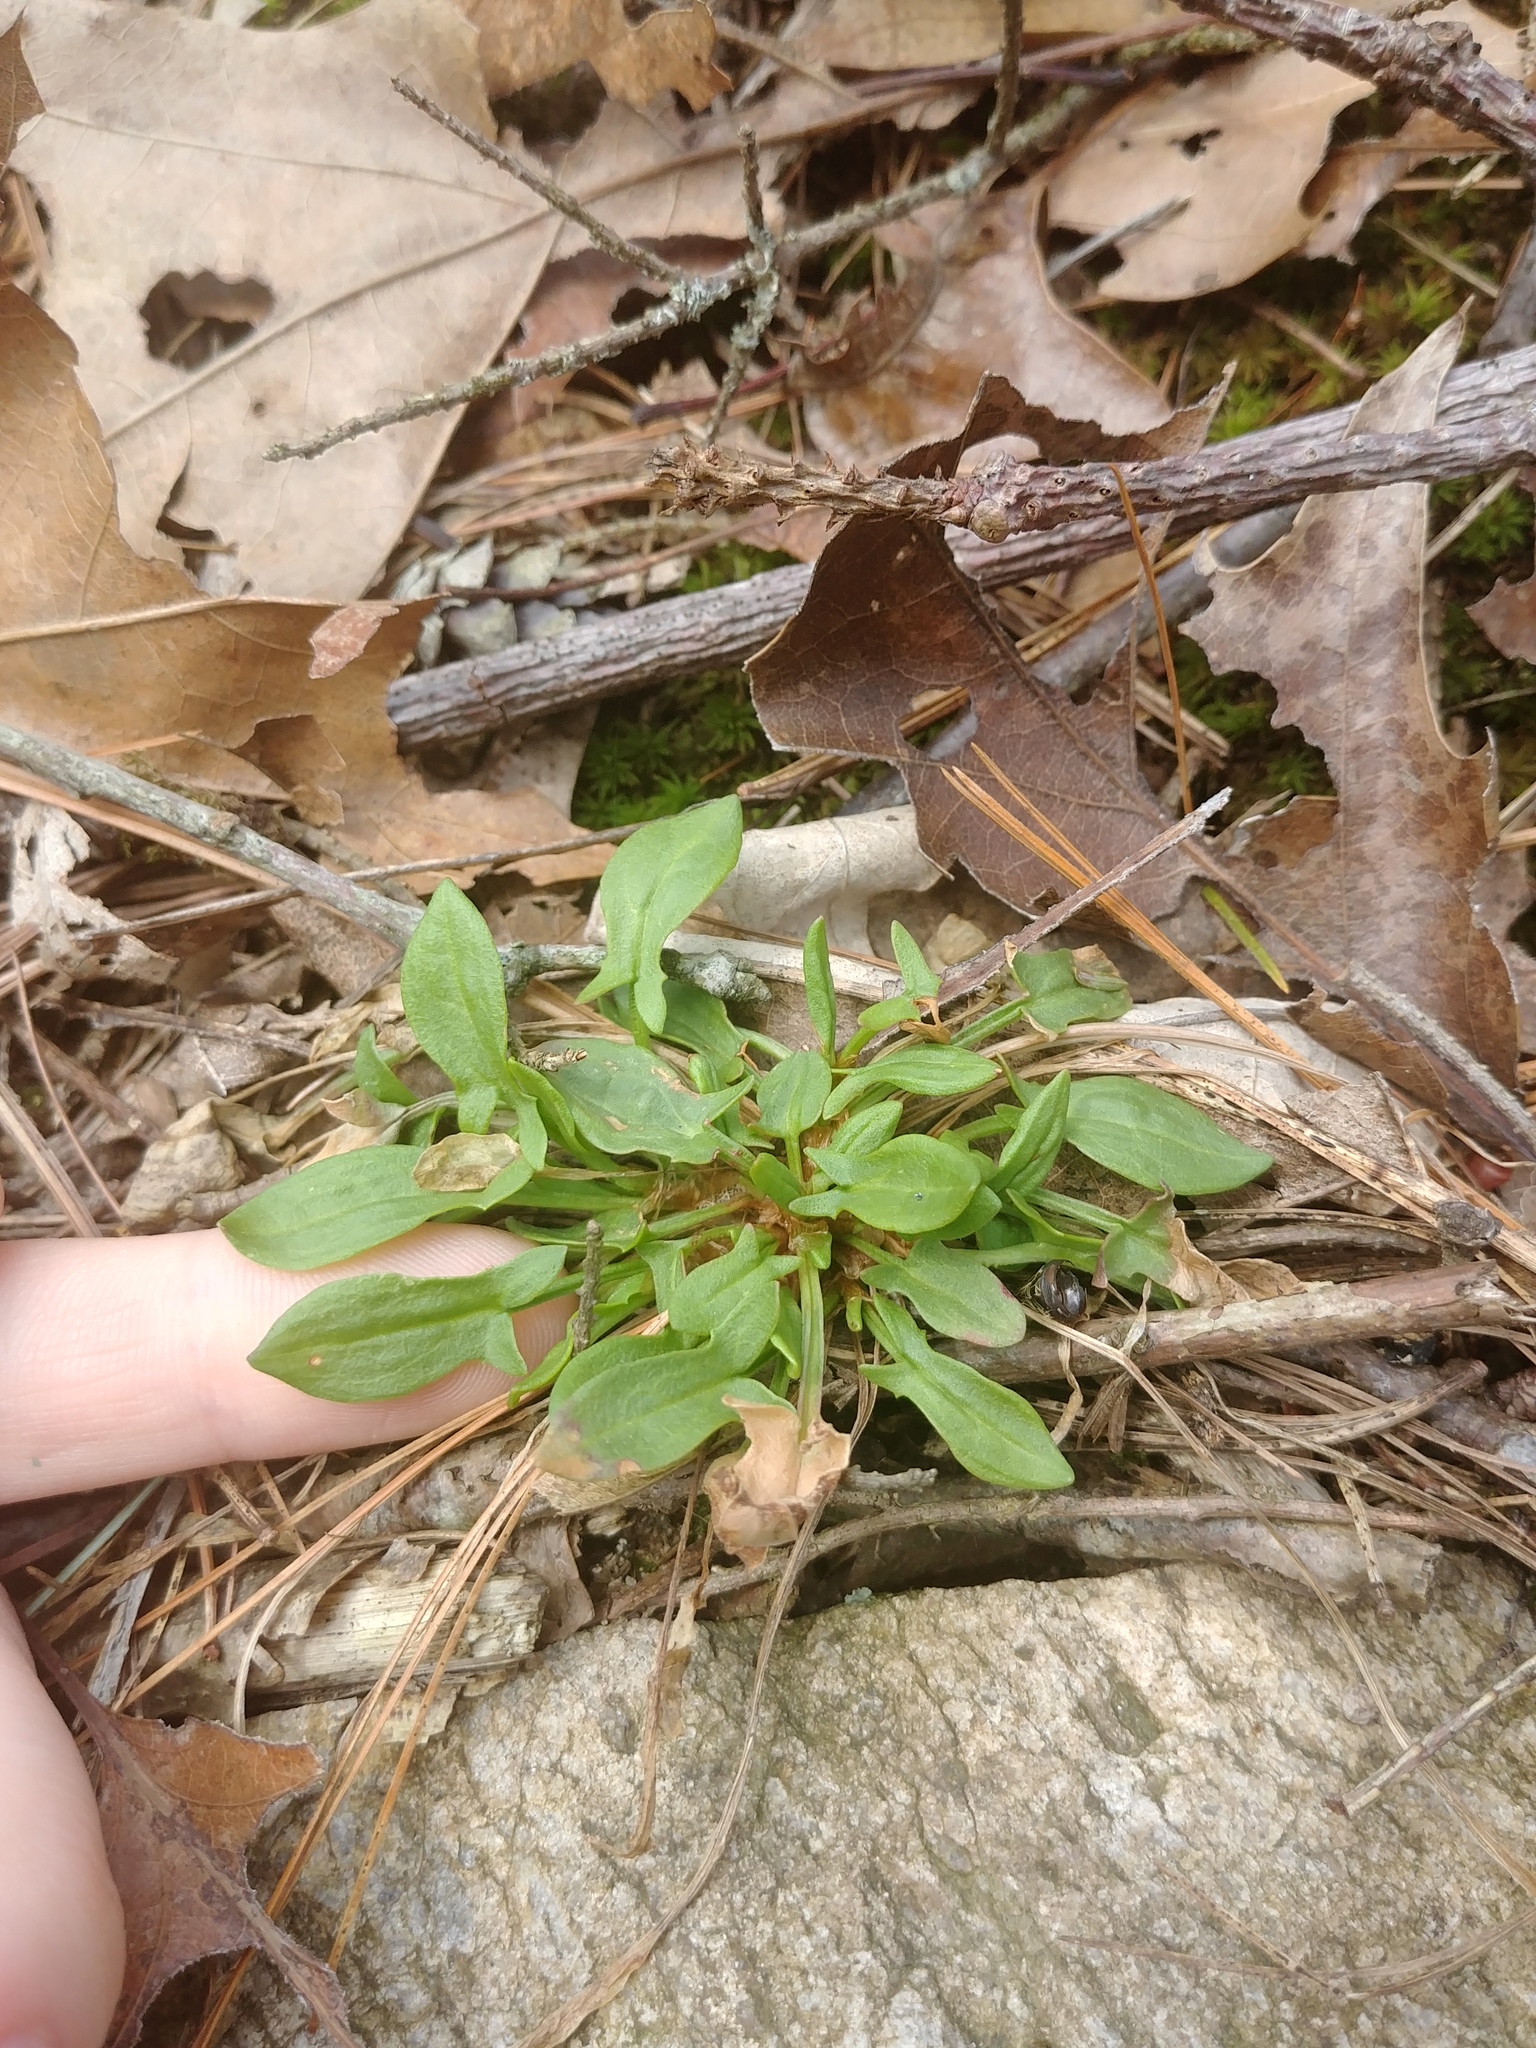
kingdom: Plantae
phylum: Tracheophyta
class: Magnoliopsida
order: Caryophyllales
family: Polygonaceae
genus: Rumex
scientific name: Rumex acetosella
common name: Common sheep sorrel
